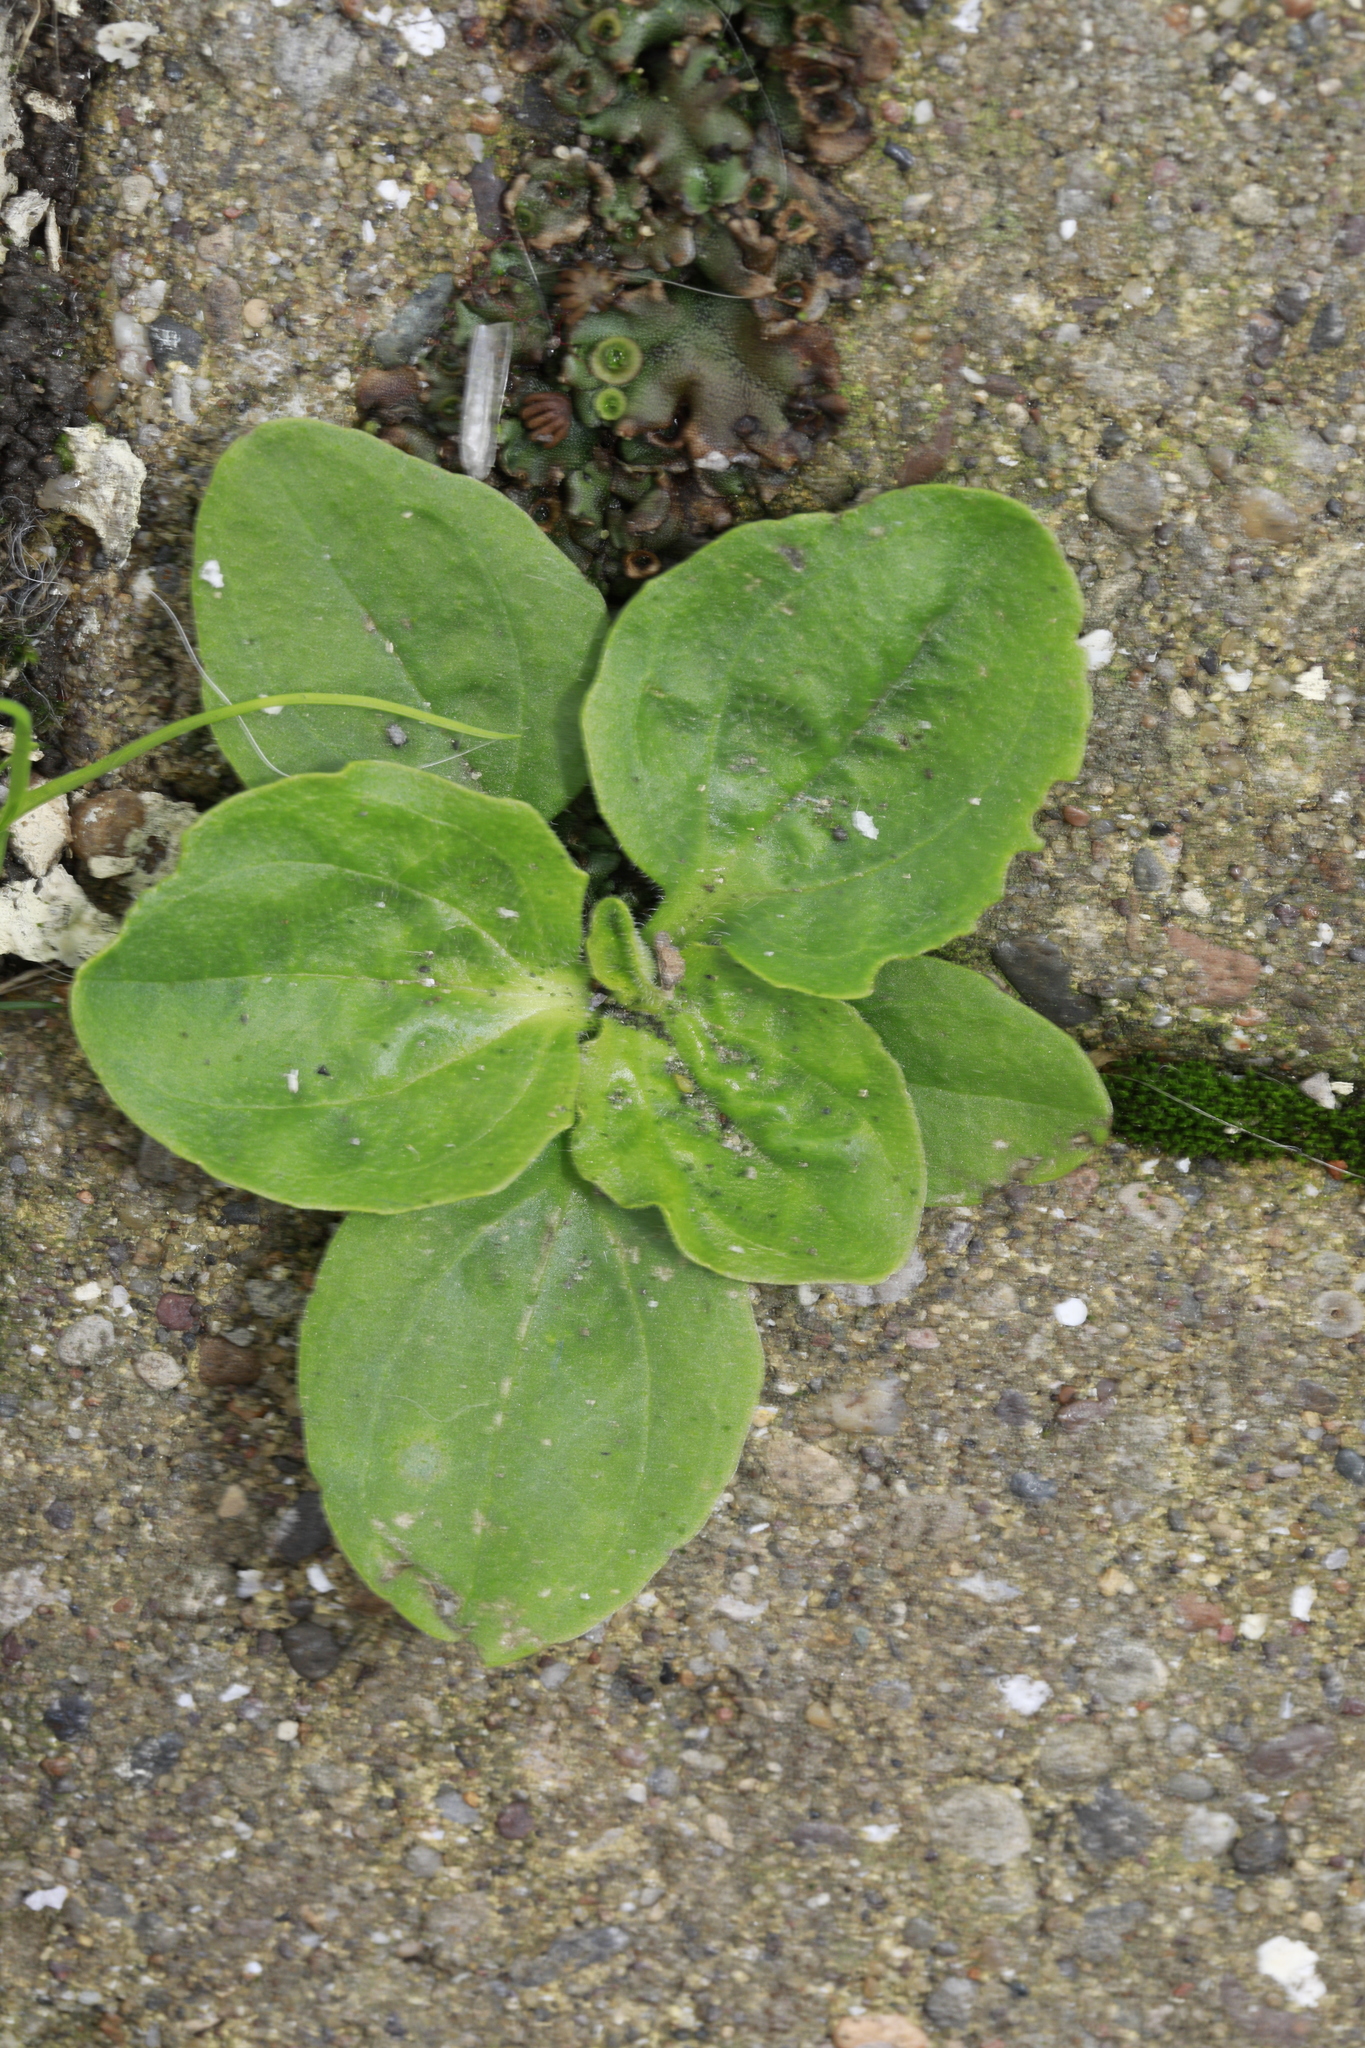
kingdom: Plantae
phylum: Tracheophyta
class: Magnoliopsida
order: Lamiales
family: Plantaginaceae
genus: Plantago
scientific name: Plantago major
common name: Common plantain
